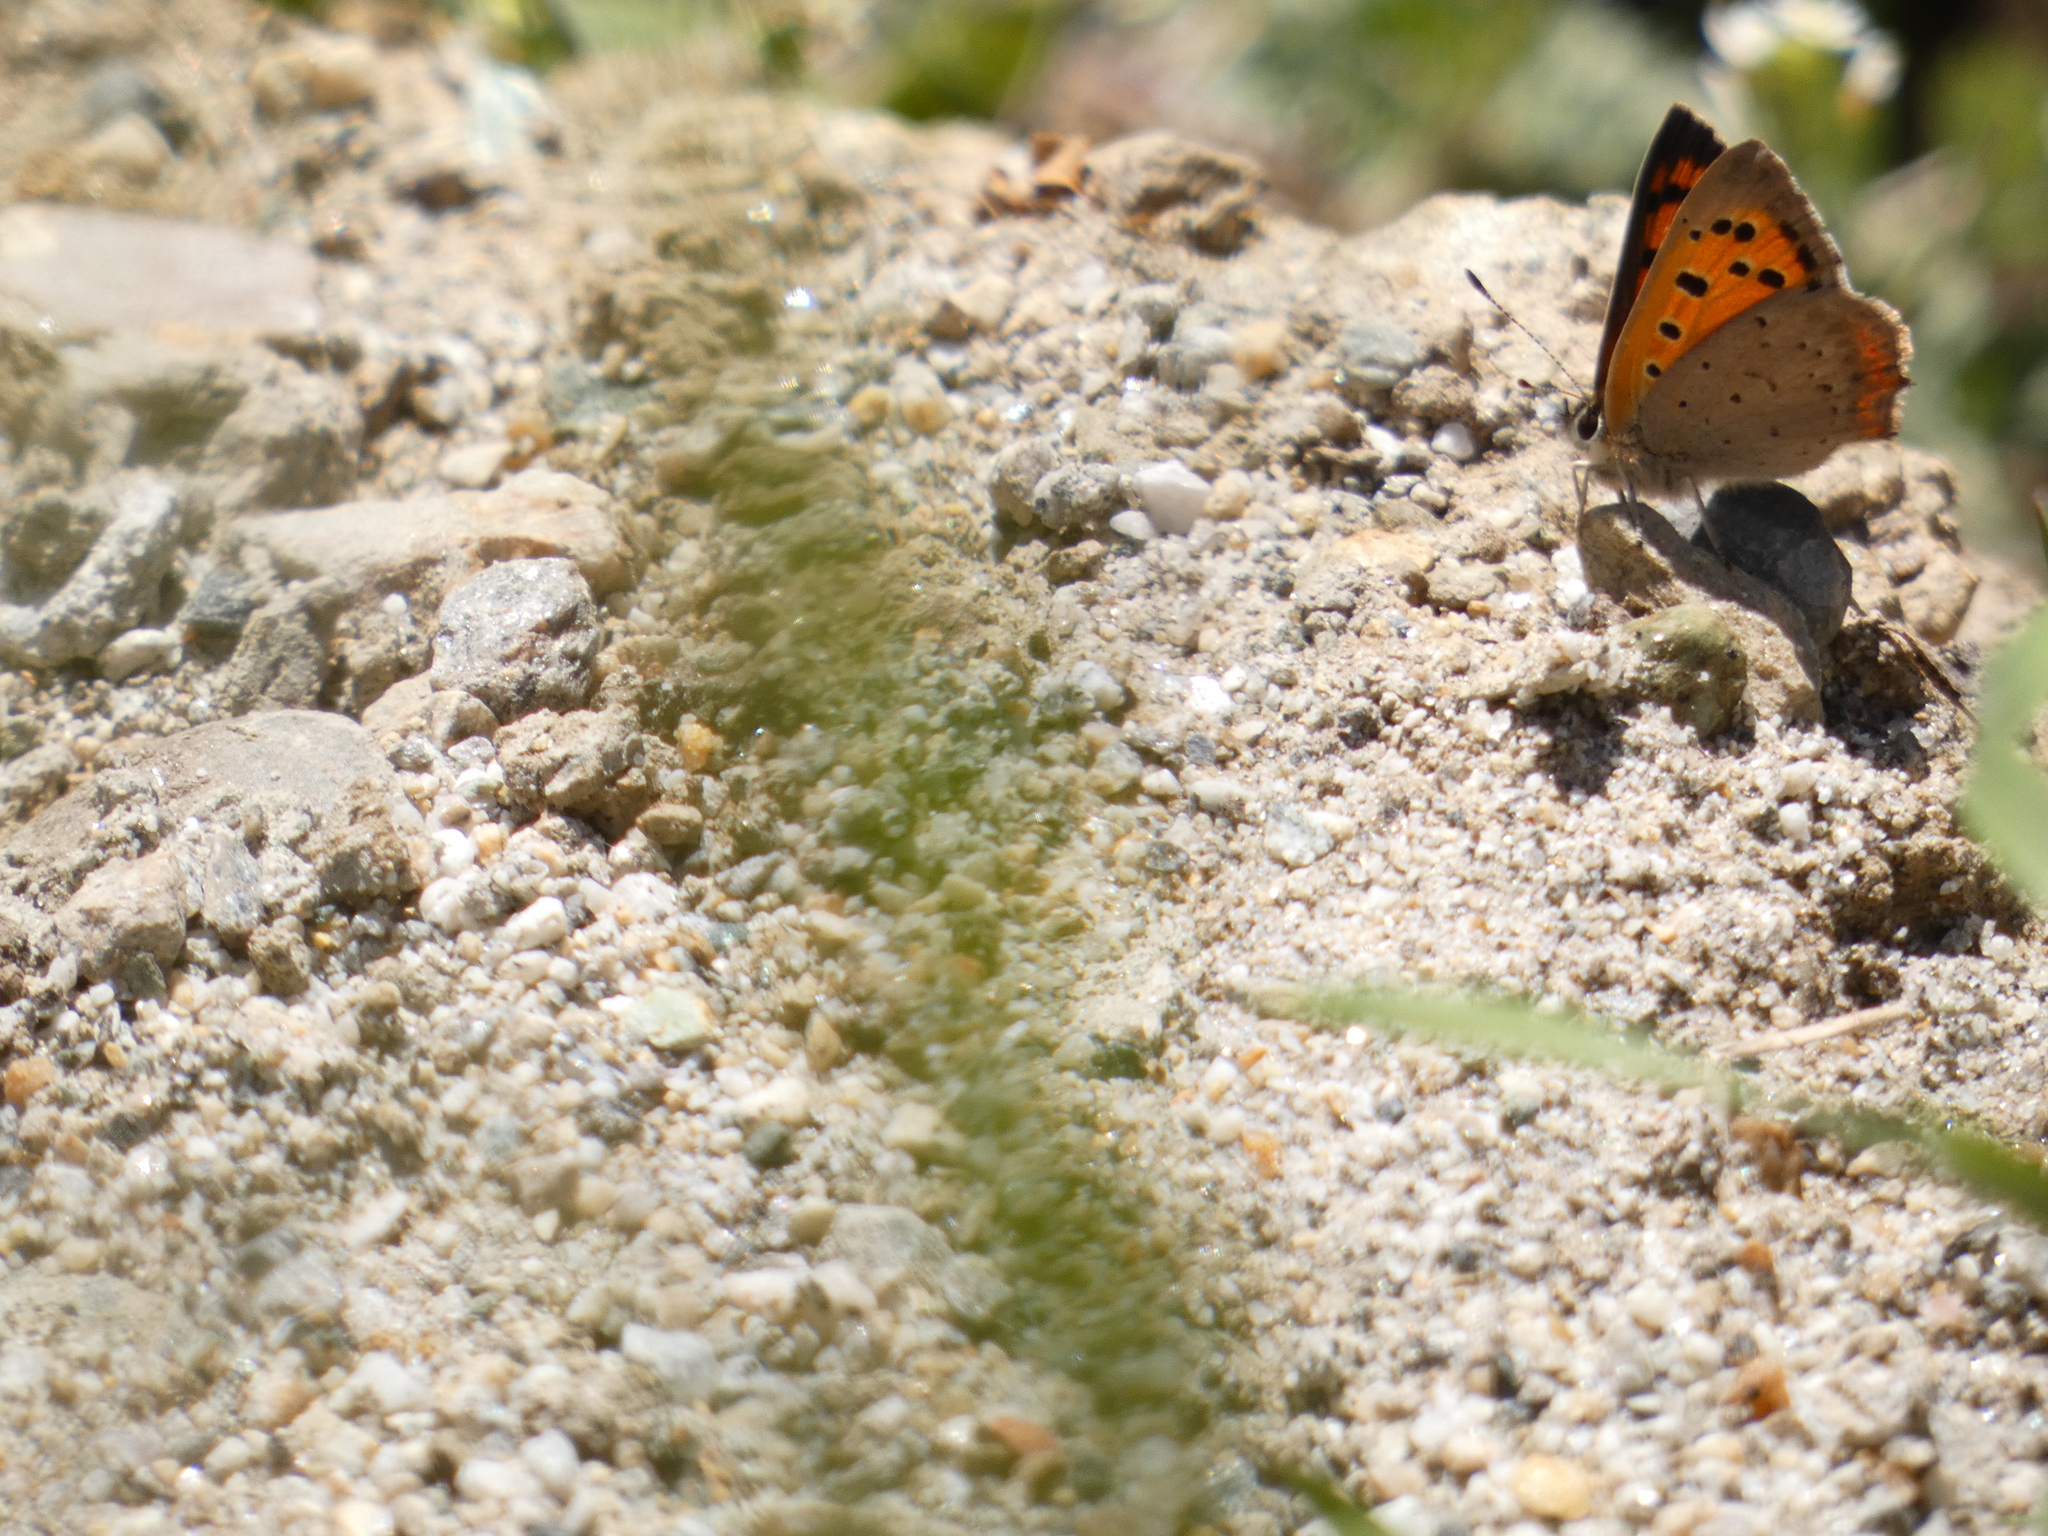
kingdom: Animalia
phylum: Arthropoda
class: Insecta
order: Lepidoptera
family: Lycaenidae
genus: Lycaena
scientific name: Lycaena phlaeas
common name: Small copper
